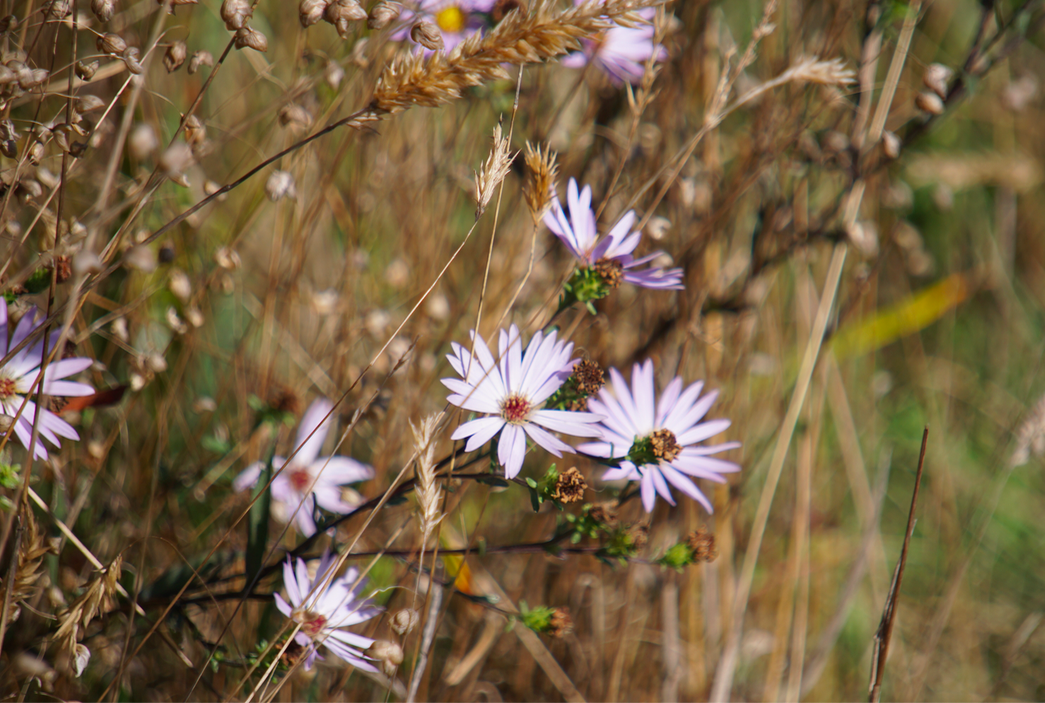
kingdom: Plantae
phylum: Tracheophyta
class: Magnoliopsida
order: Asterales
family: Asteraceae
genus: Symphyotrichum
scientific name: Symphyotrichum chilense
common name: Pacific aster
